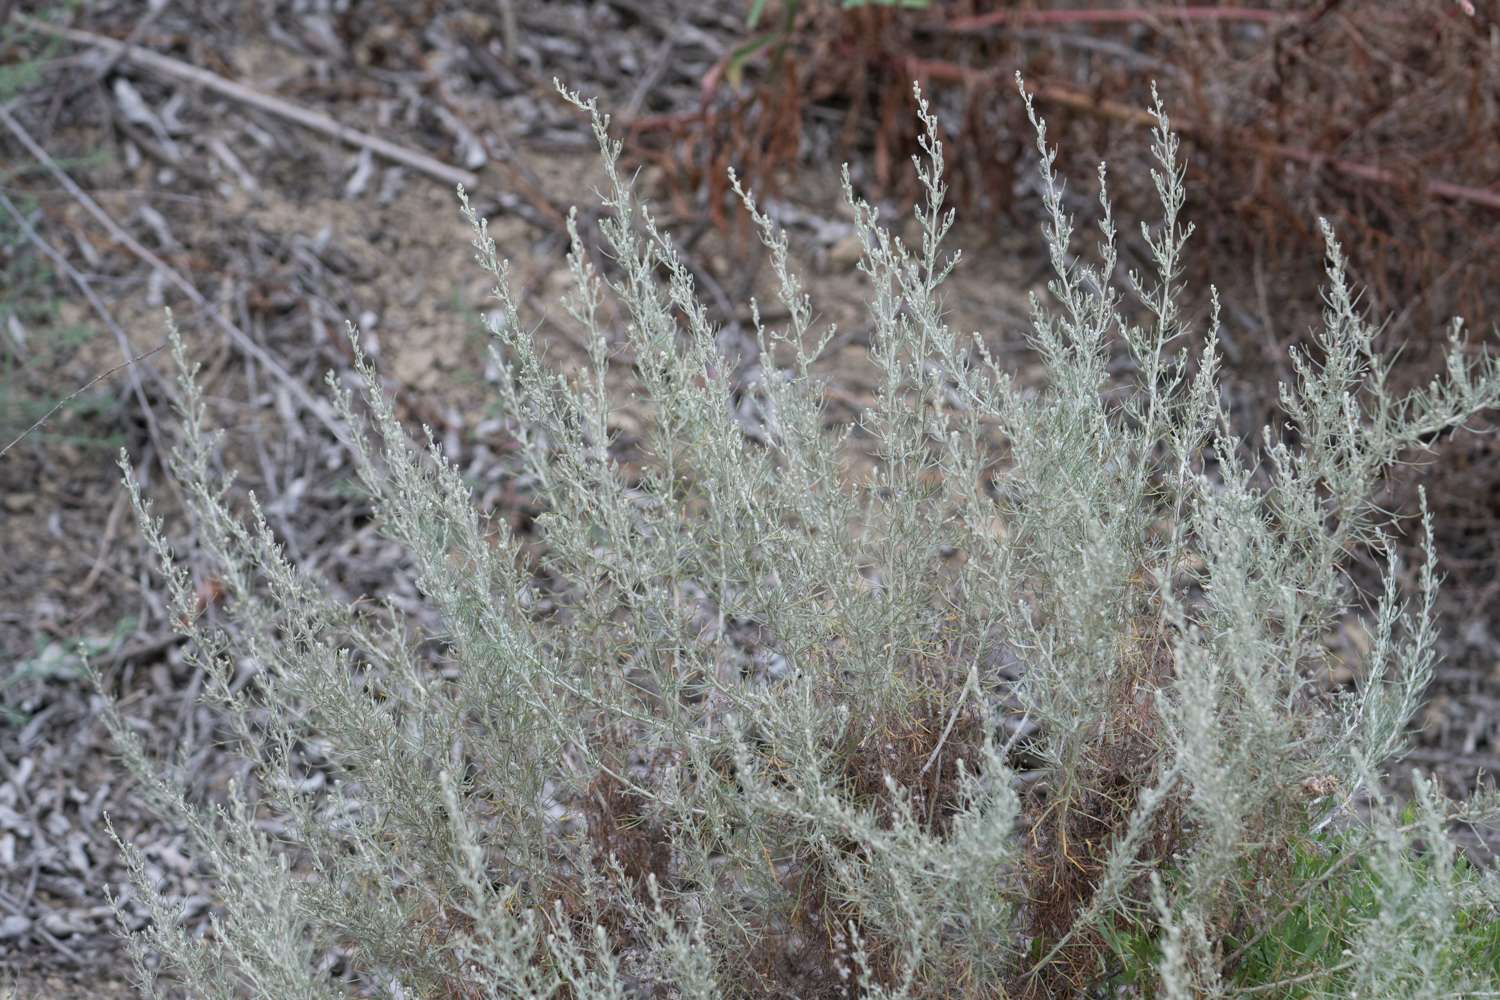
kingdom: Plantae
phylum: Tracheophyta
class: Magnoliopsida
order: Asterales
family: Asteraceae
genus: Artemisia
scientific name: Artemisia californica
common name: California sagebrush
